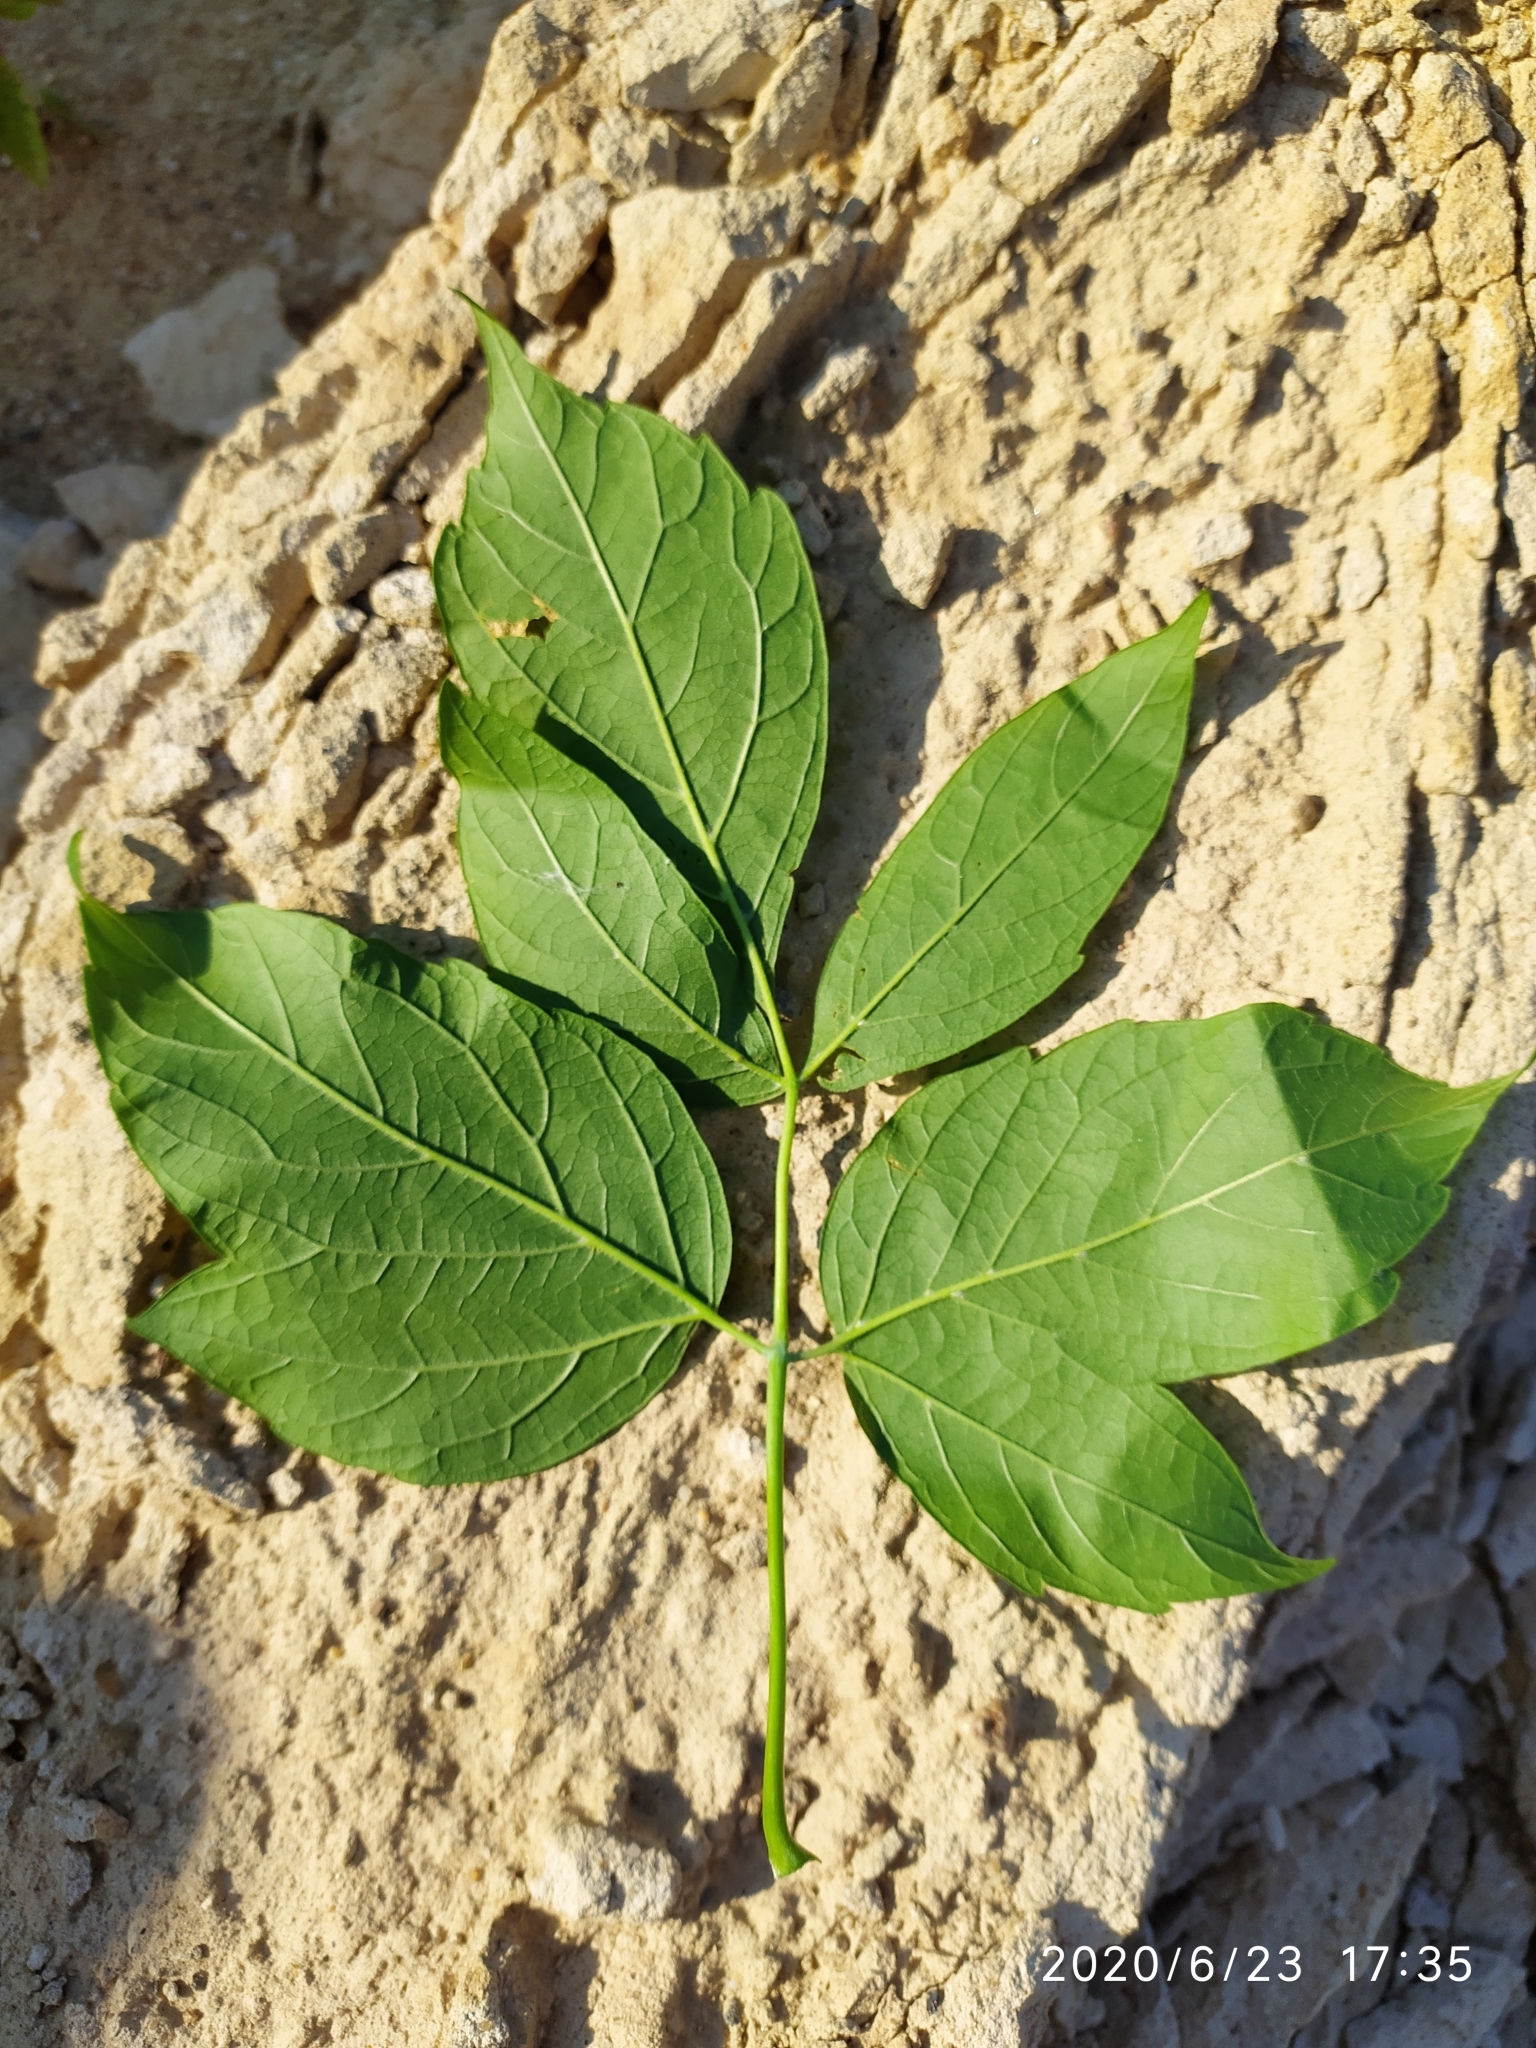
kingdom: Plantae
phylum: Tracheophyta
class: Magnoliopsida
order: Sapindales
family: Sapindaceae
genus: Acer
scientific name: Acer negundo
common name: Ashleaf maple
